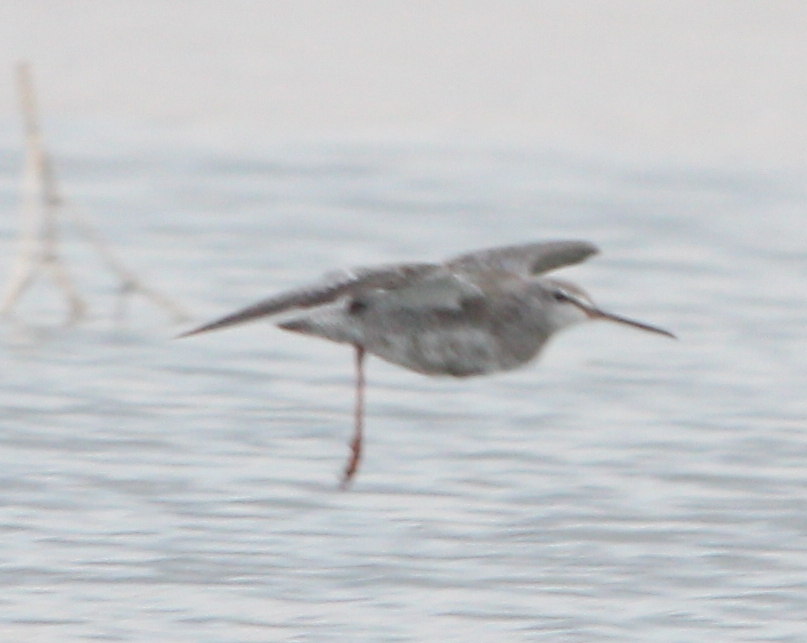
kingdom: Animalia
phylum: Chordata
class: Aves
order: Charadriiformes
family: Scolopacidae
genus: Tringa
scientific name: Tringa erythropus
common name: Spotted redshank
